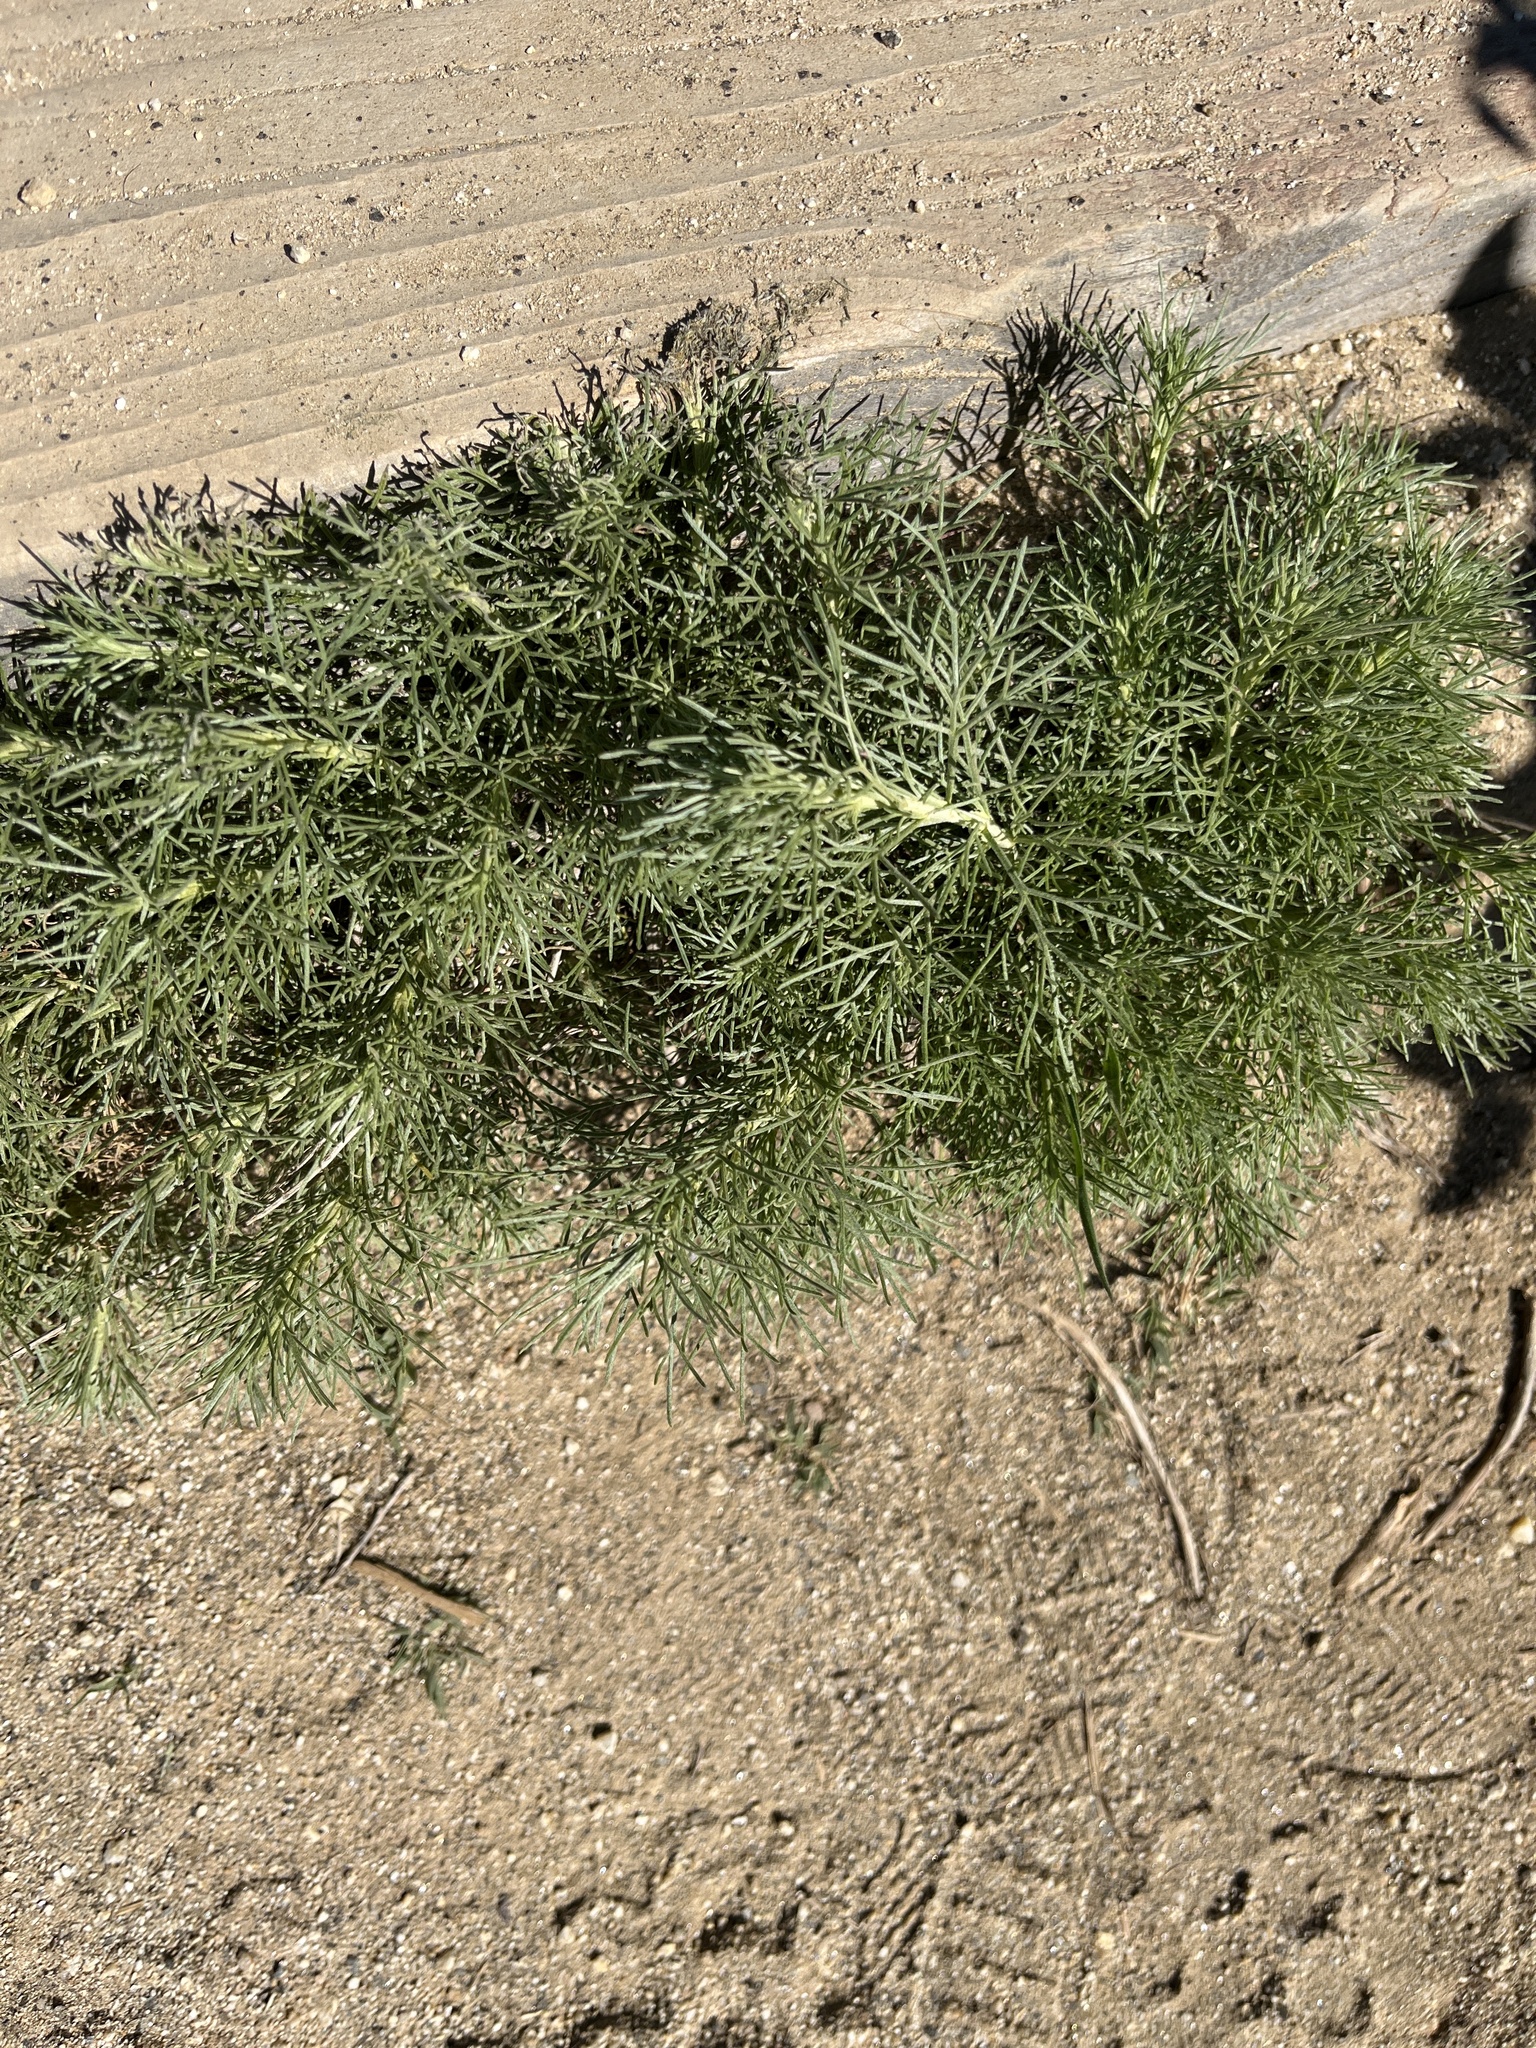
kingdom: Plantae
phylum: Tracheophyta
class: Magnoliopsida
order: Asterales
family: Asteraceae
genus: Artemisia
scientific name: Artemisia californica
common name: California sagebrush
